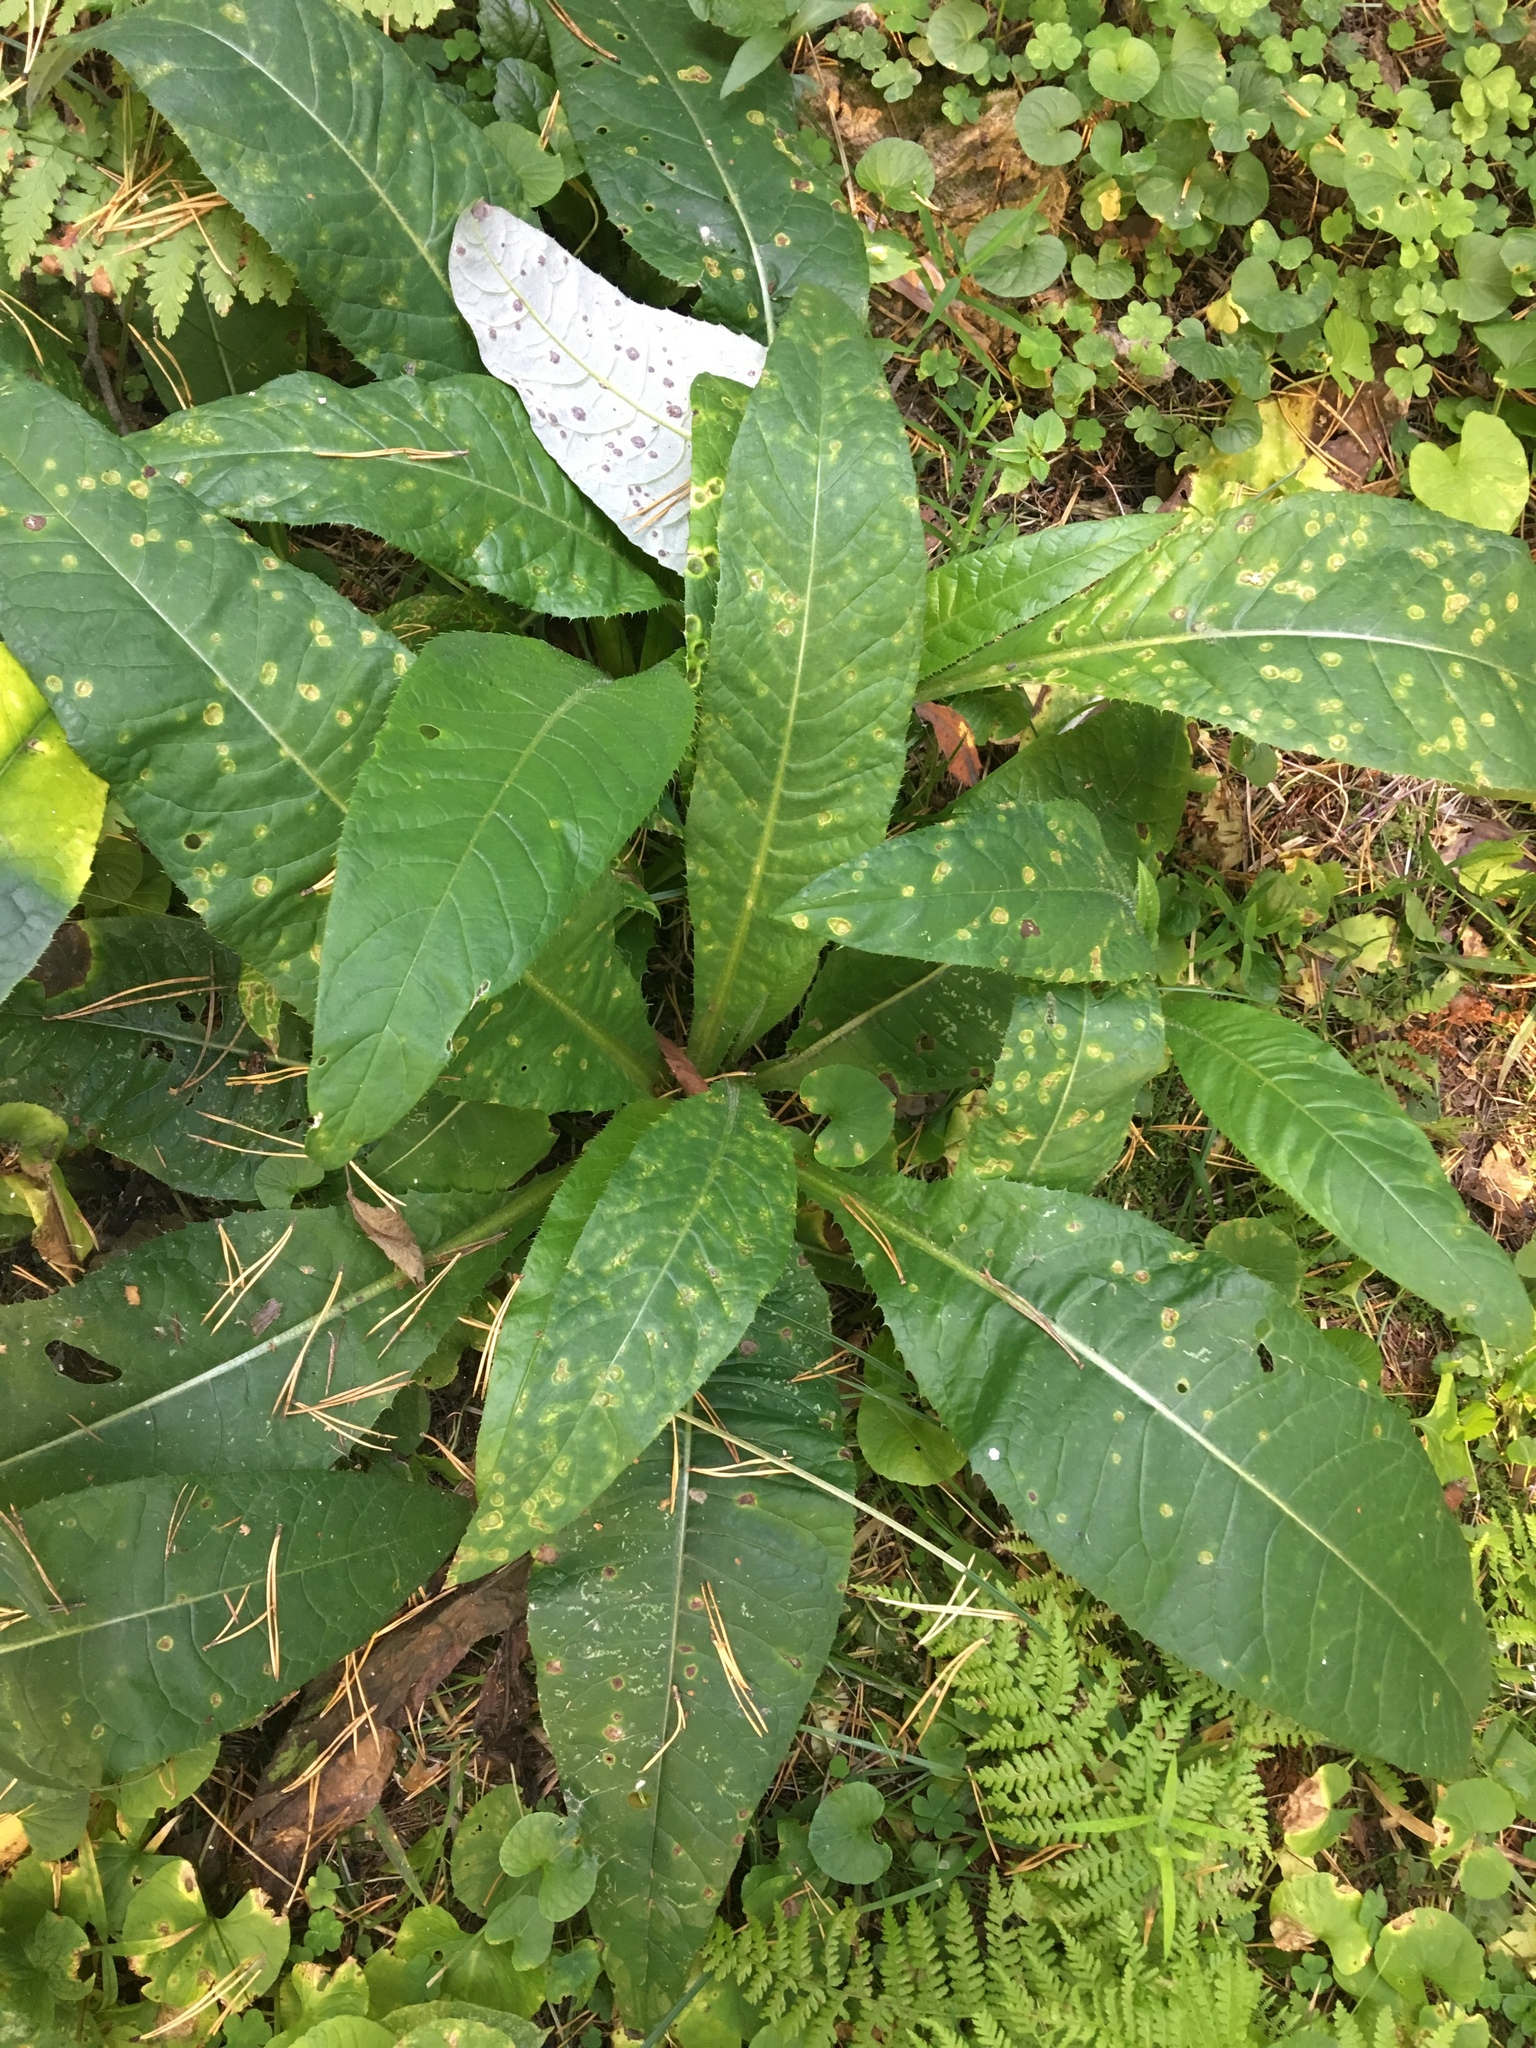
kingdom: Plantae
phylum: Tracheophyta
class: Magnoliopsida
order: Asterales
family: Asteraceae
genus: Cirsium
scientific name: Cirsium heterophyllum
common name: Melancholy thistle
